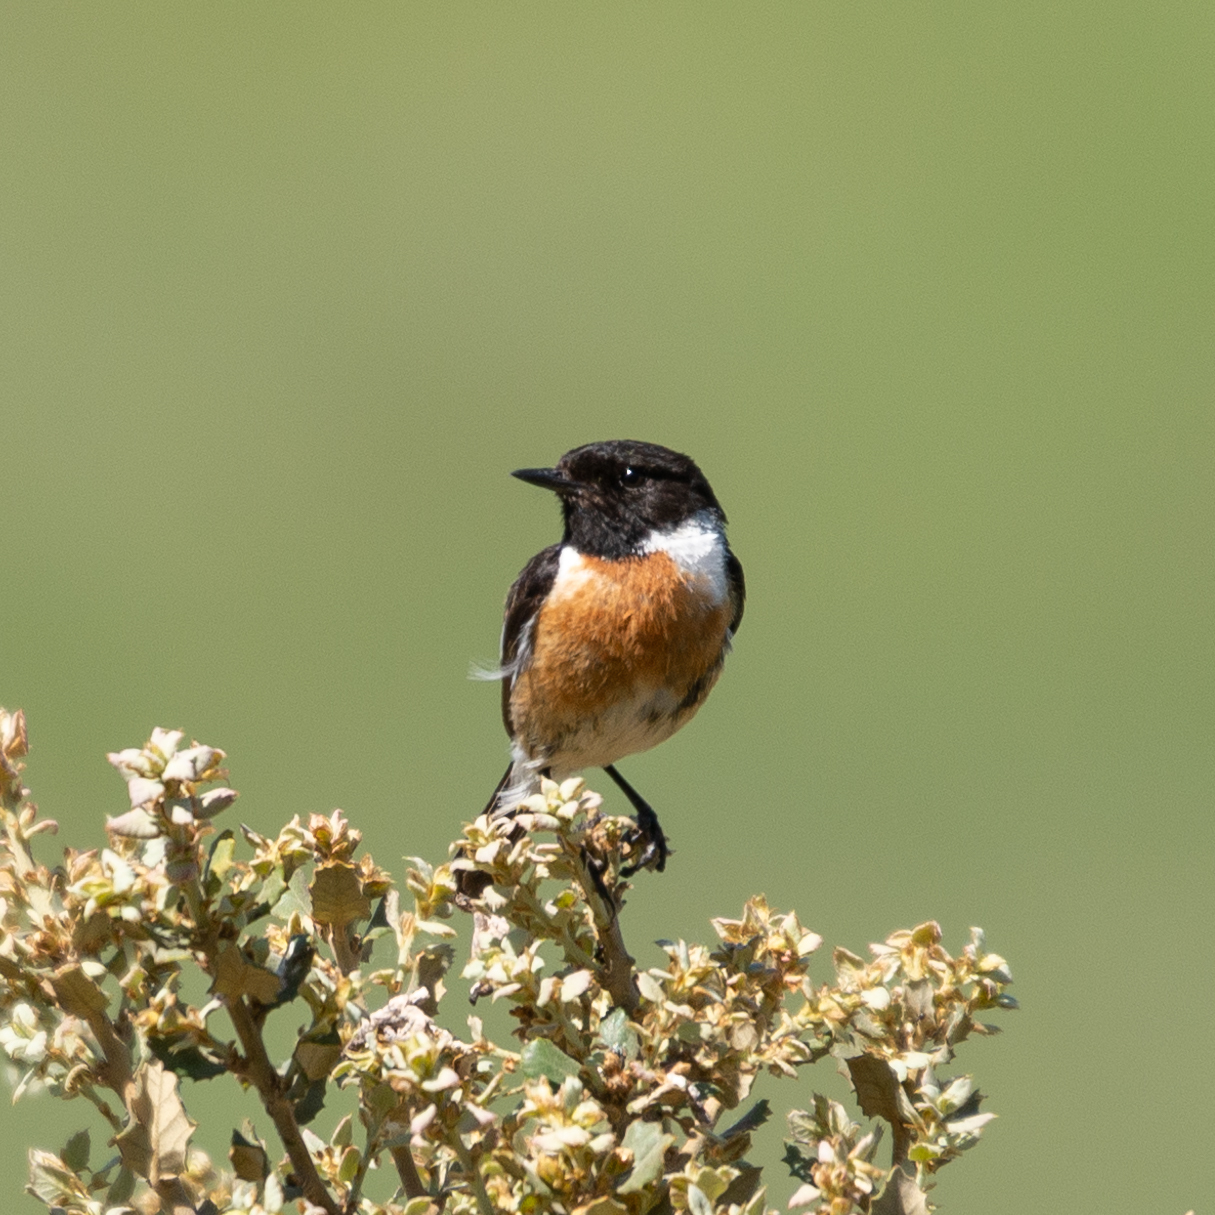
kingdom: Animalia
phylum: Chordata
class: Aves
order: Passeriformes
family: Muscicapidae
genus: Saxicola
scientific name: Saxicola rubicola
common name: European stonechat
